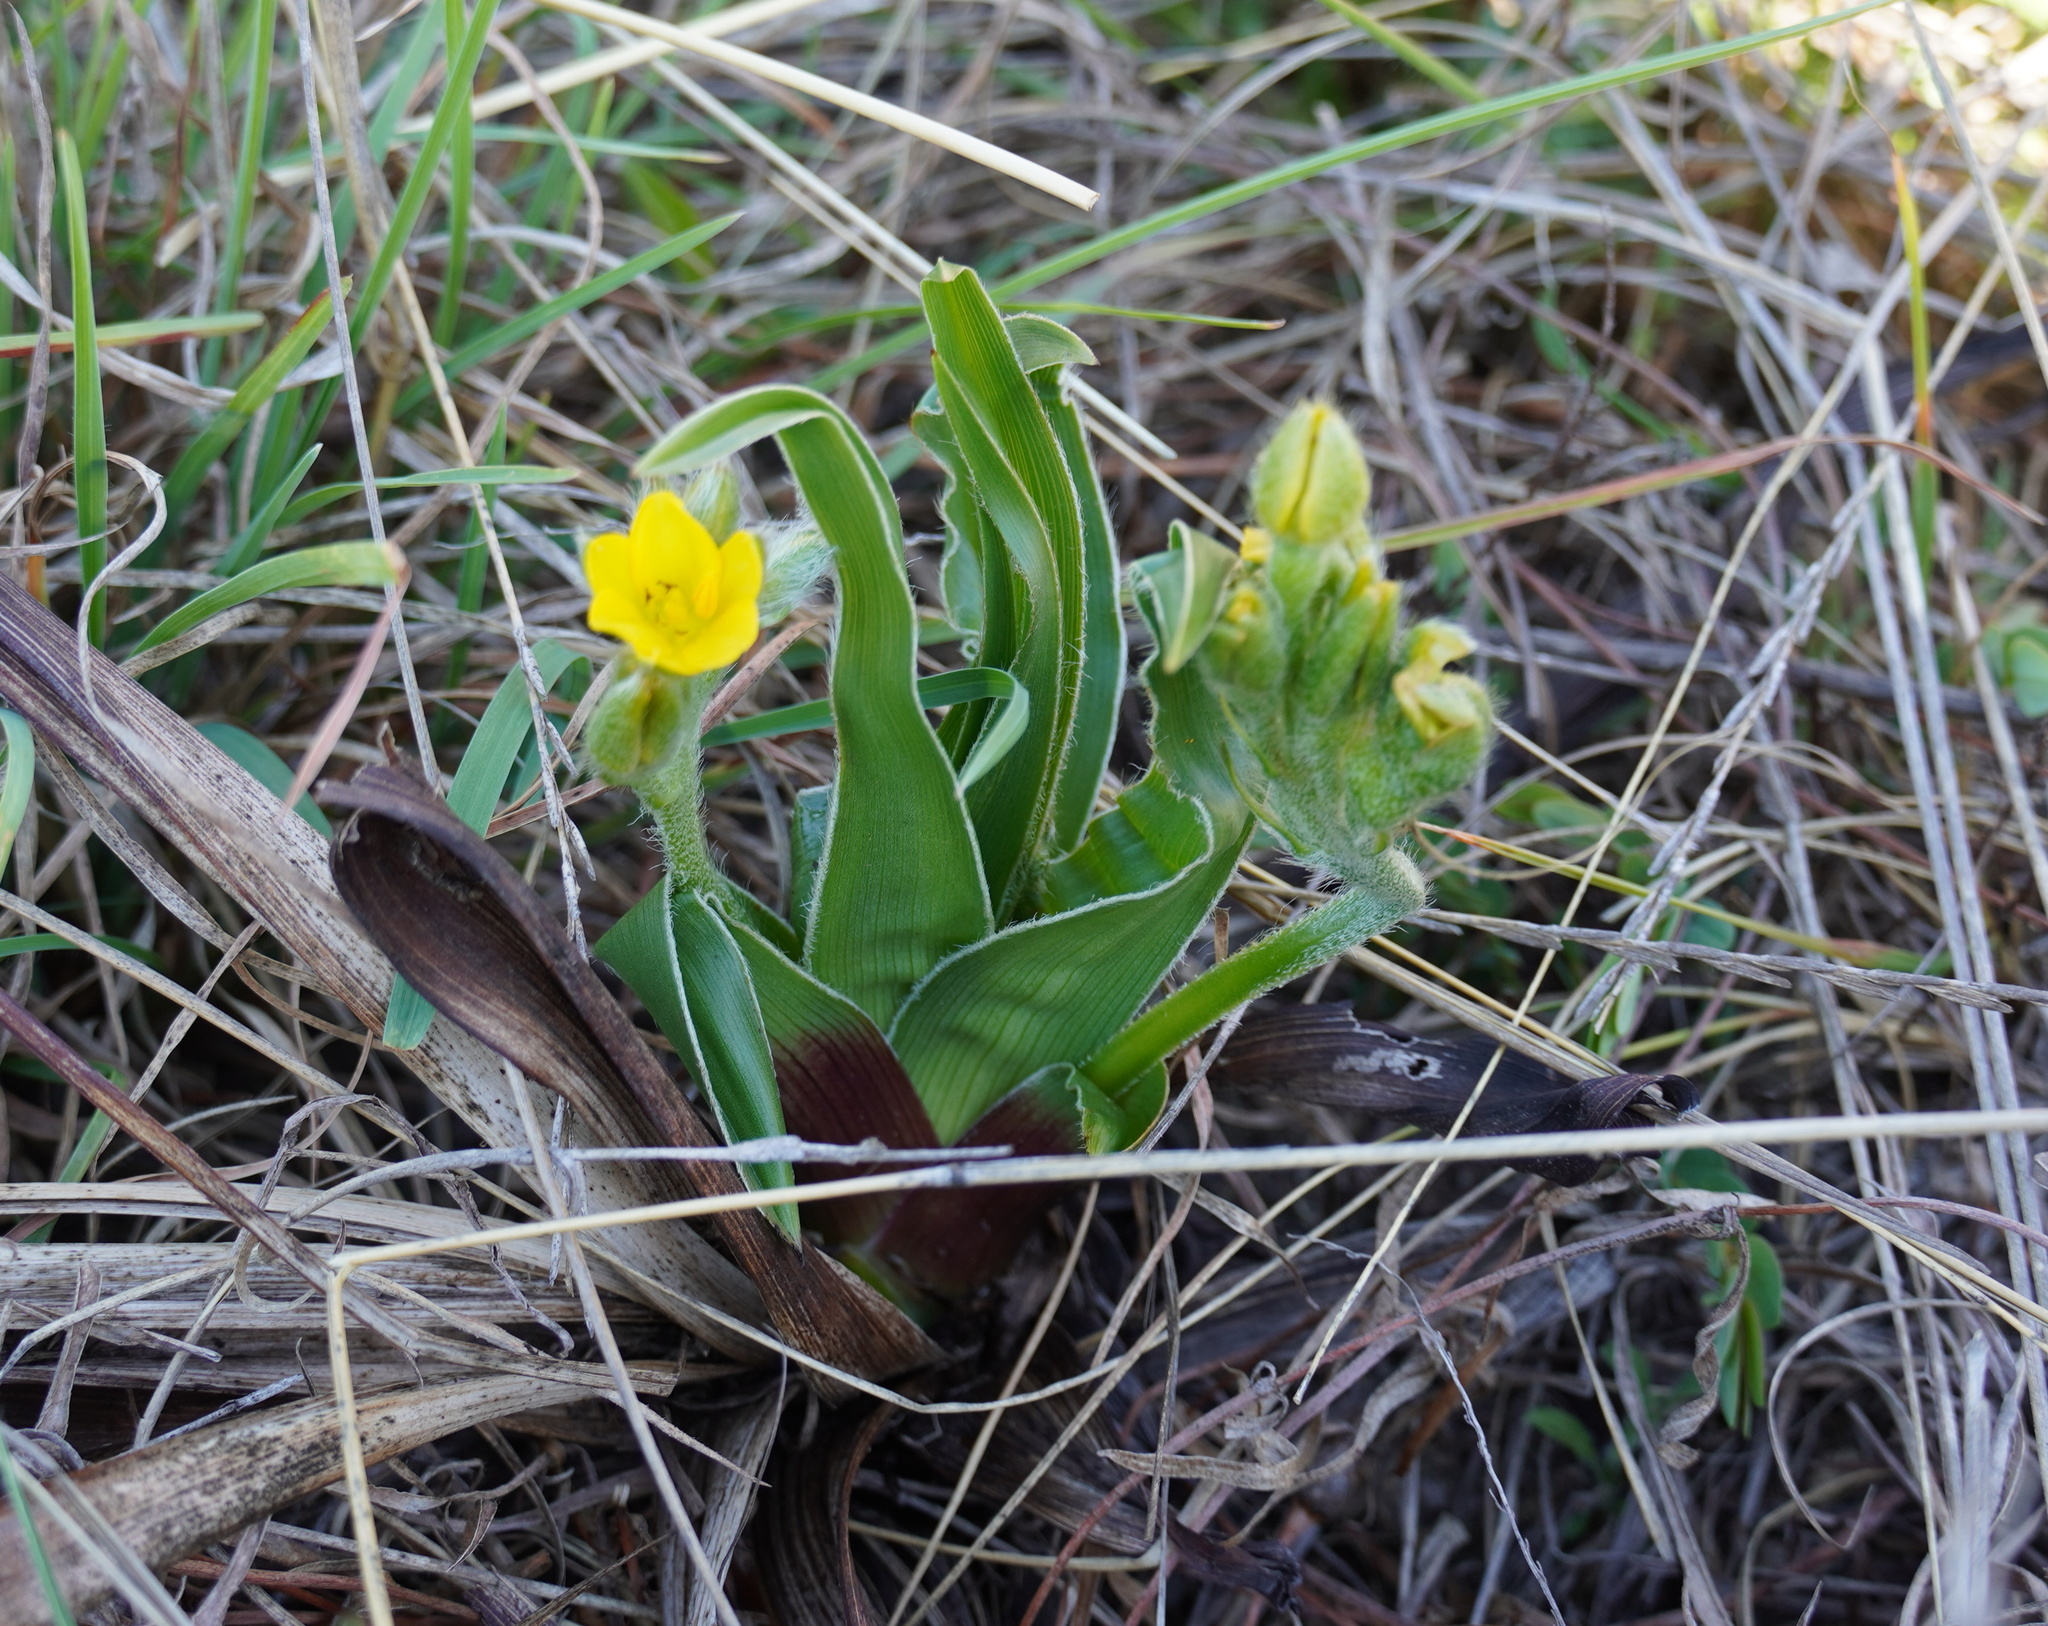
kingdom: Plantae
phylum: Tracheophyta
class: Liliopsida
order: Asparagales
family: Hypoxidaceae
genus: Hypoxis
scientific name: Hypoxis obtusa
